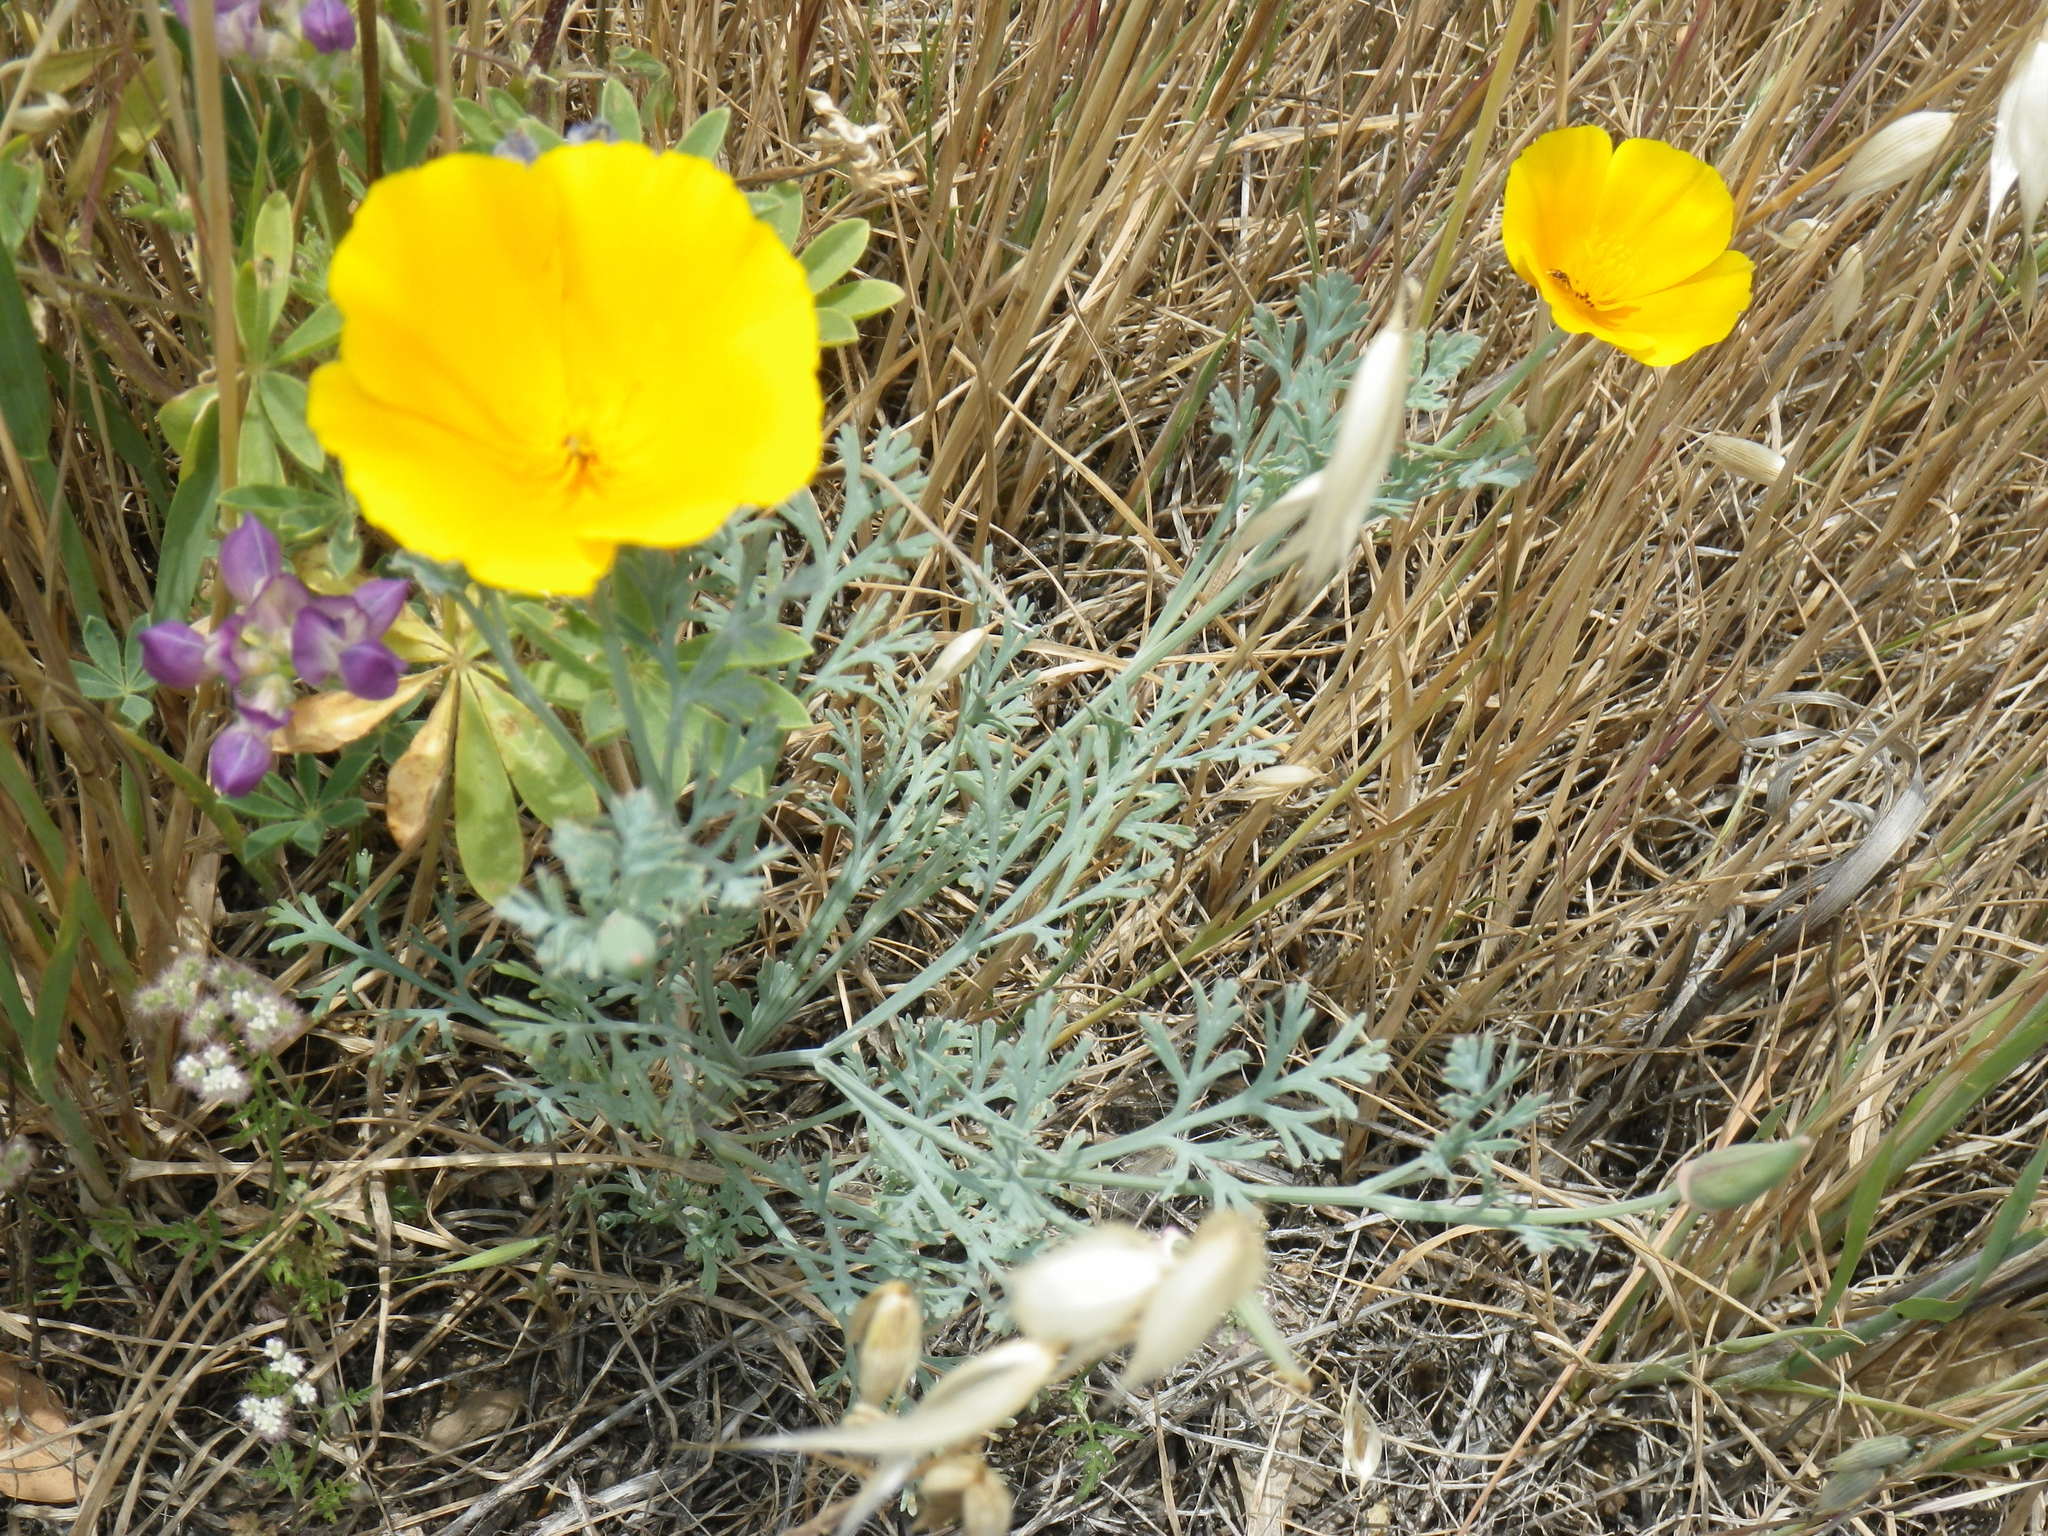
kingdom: Plantae
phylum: Tracheophyta
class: Magnoliopsida
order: Ranunculales
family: Papaveraceae
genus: Eschscholzia
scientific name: Eschscholzia californica
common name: California poppy
